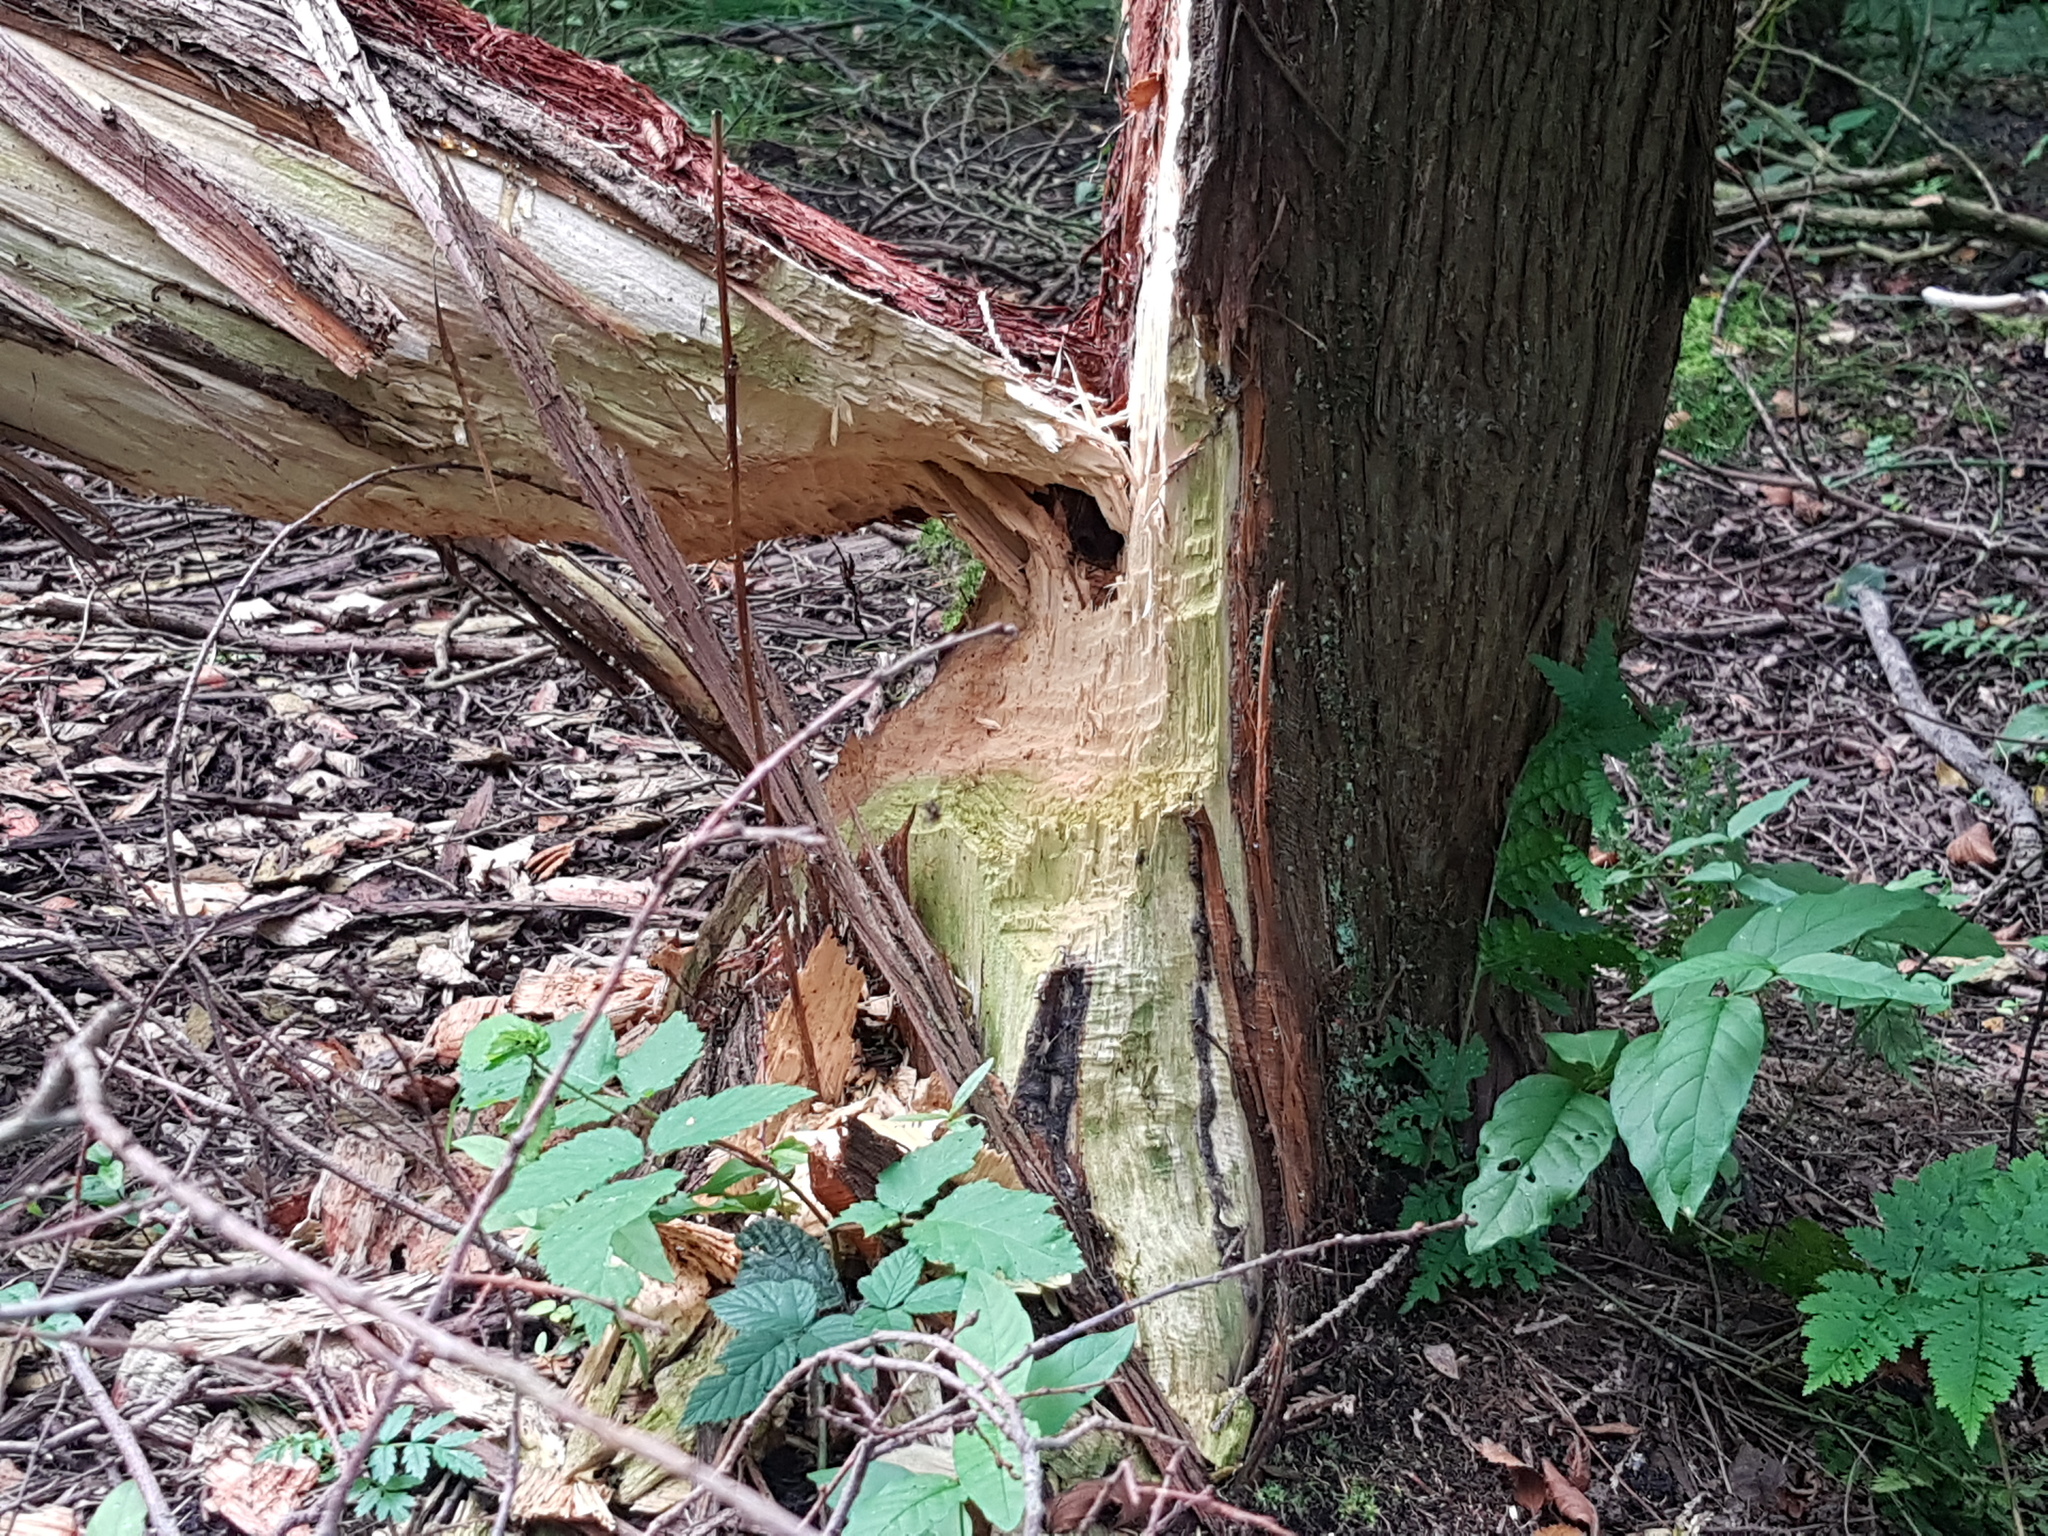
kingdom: Animalia
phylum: Chordata
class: Mammalia
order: Rodentia
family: Castoridae
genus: Castor
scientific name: Castor fiber
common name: Eurasian beaver
